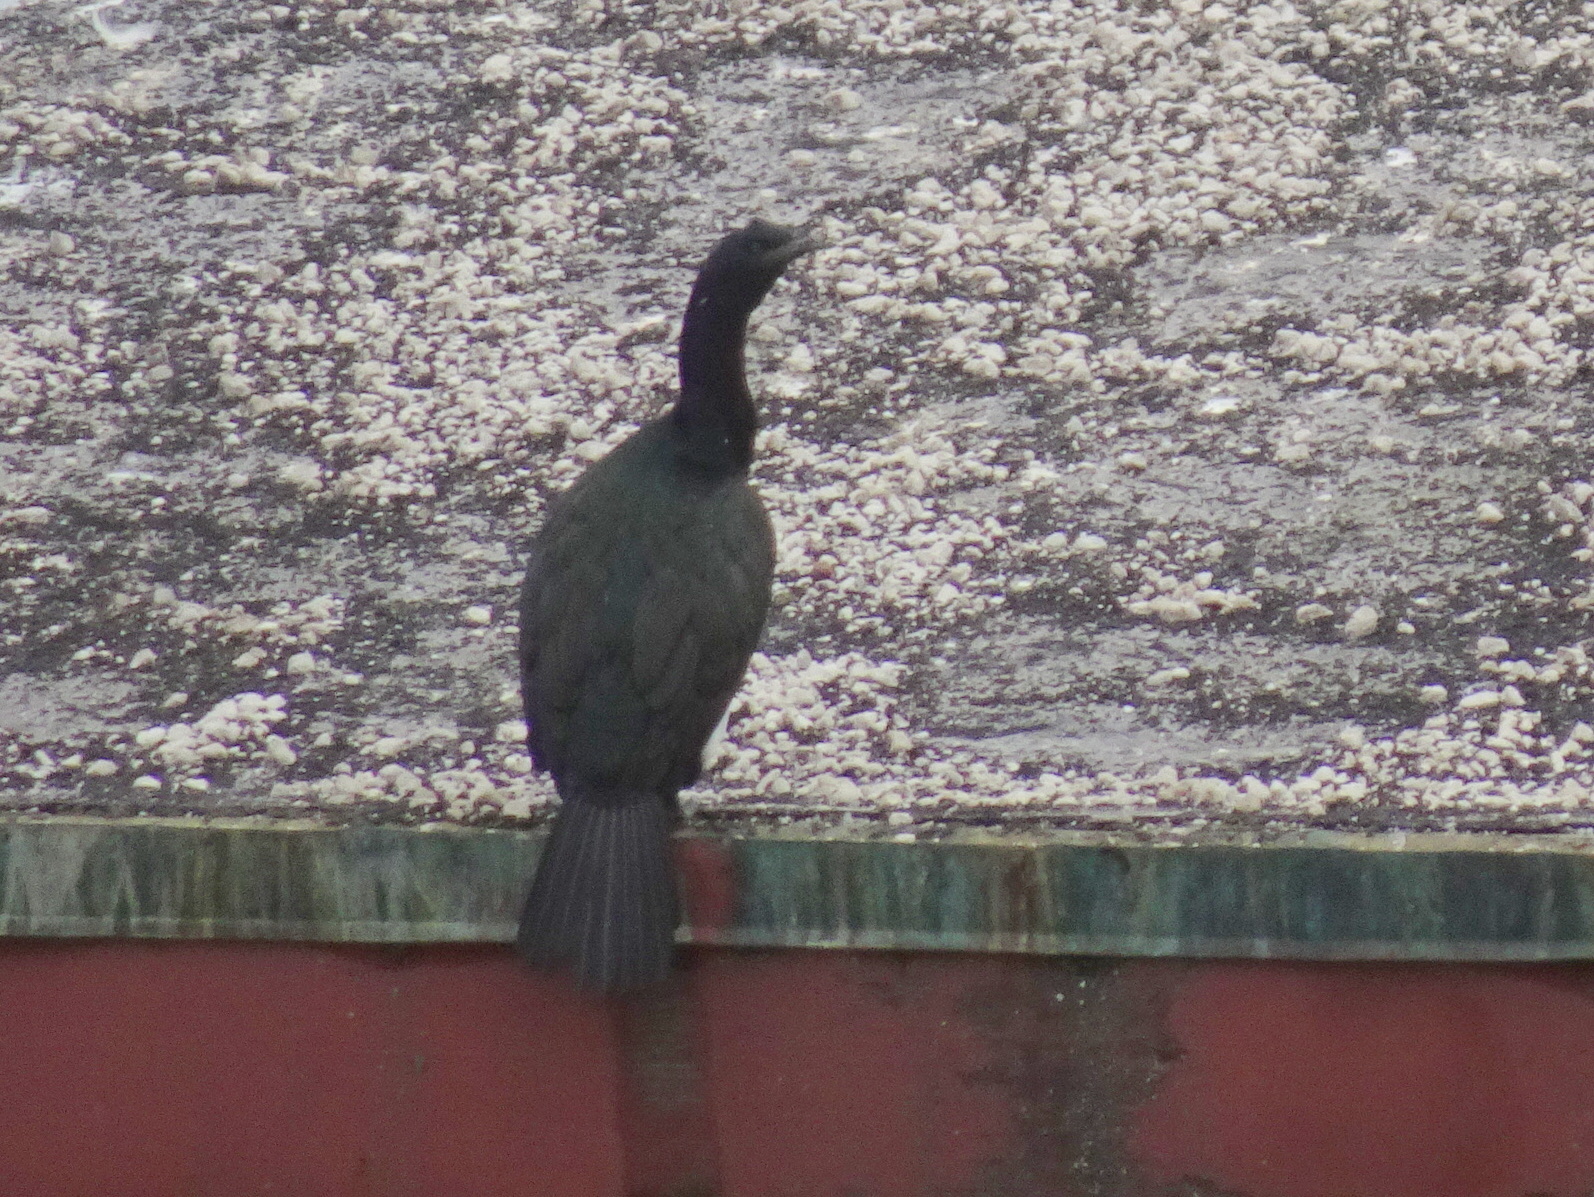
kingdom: Animalia
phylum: Chordata
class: Aves
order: Suliformes
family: Phalacrocoracidae
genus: Phalacrocorax
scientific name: Phalacrocorax pelagicus
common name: Pelagic cormorant
